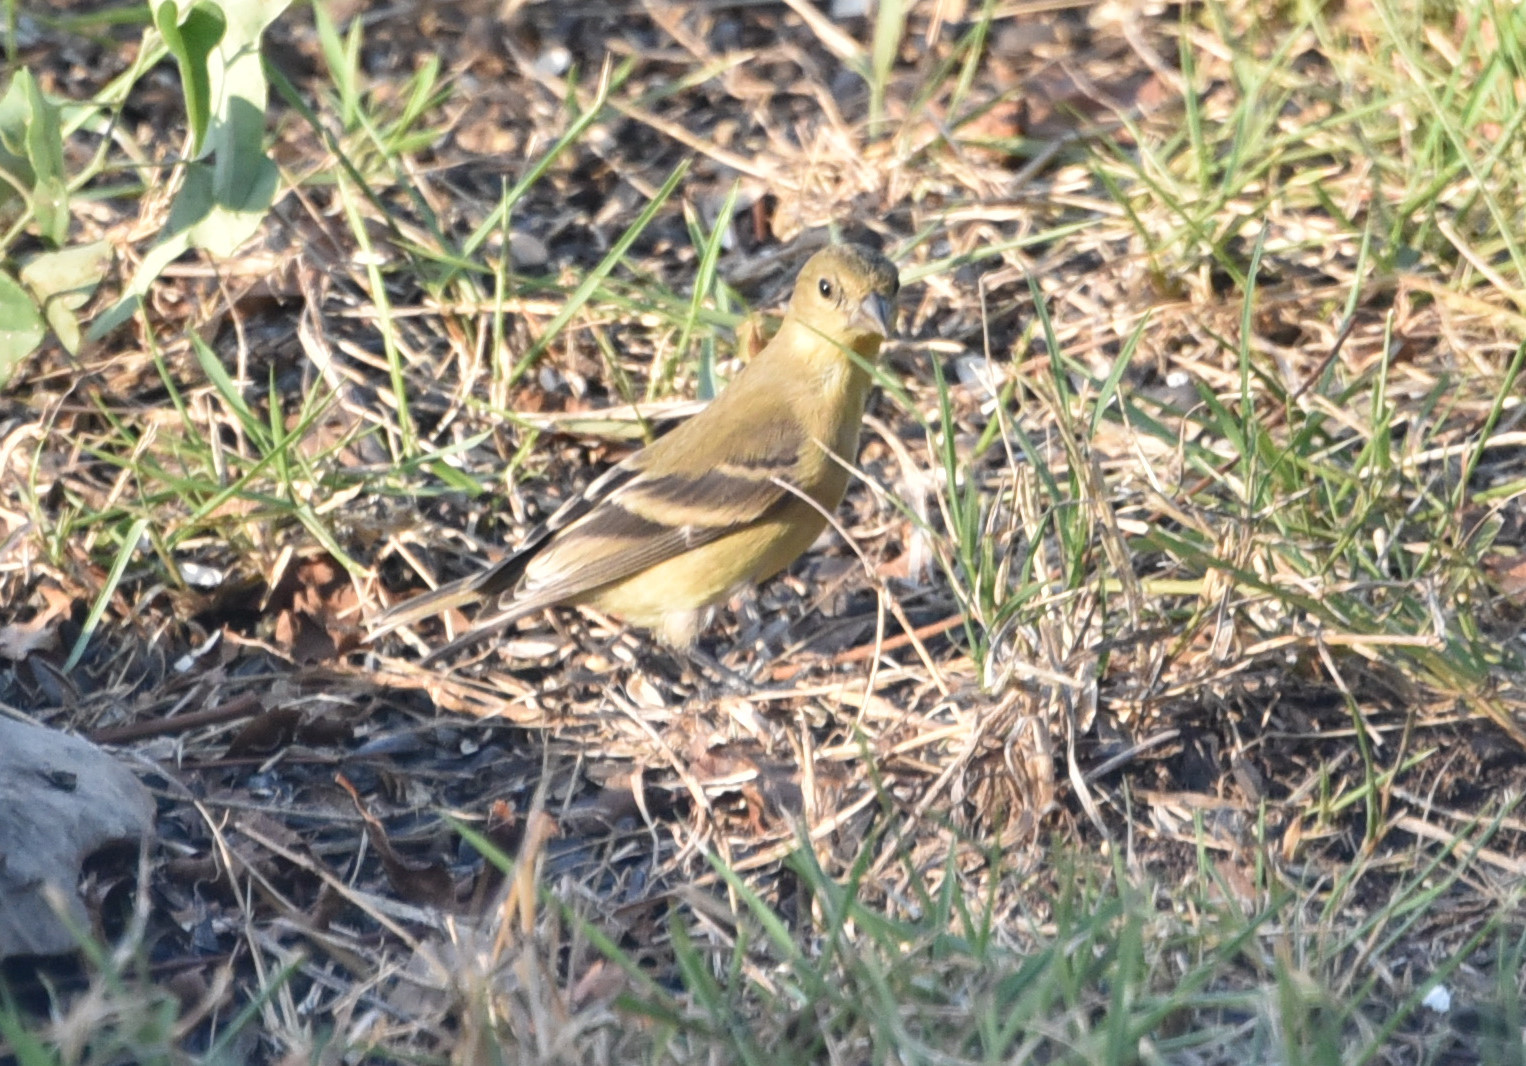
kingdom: Animalia
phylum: Chordata
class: Aves
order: Passeriformes
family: Fringillidae
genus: Spinus
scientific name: Spinus psaltria
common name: Lesser goldfinch
